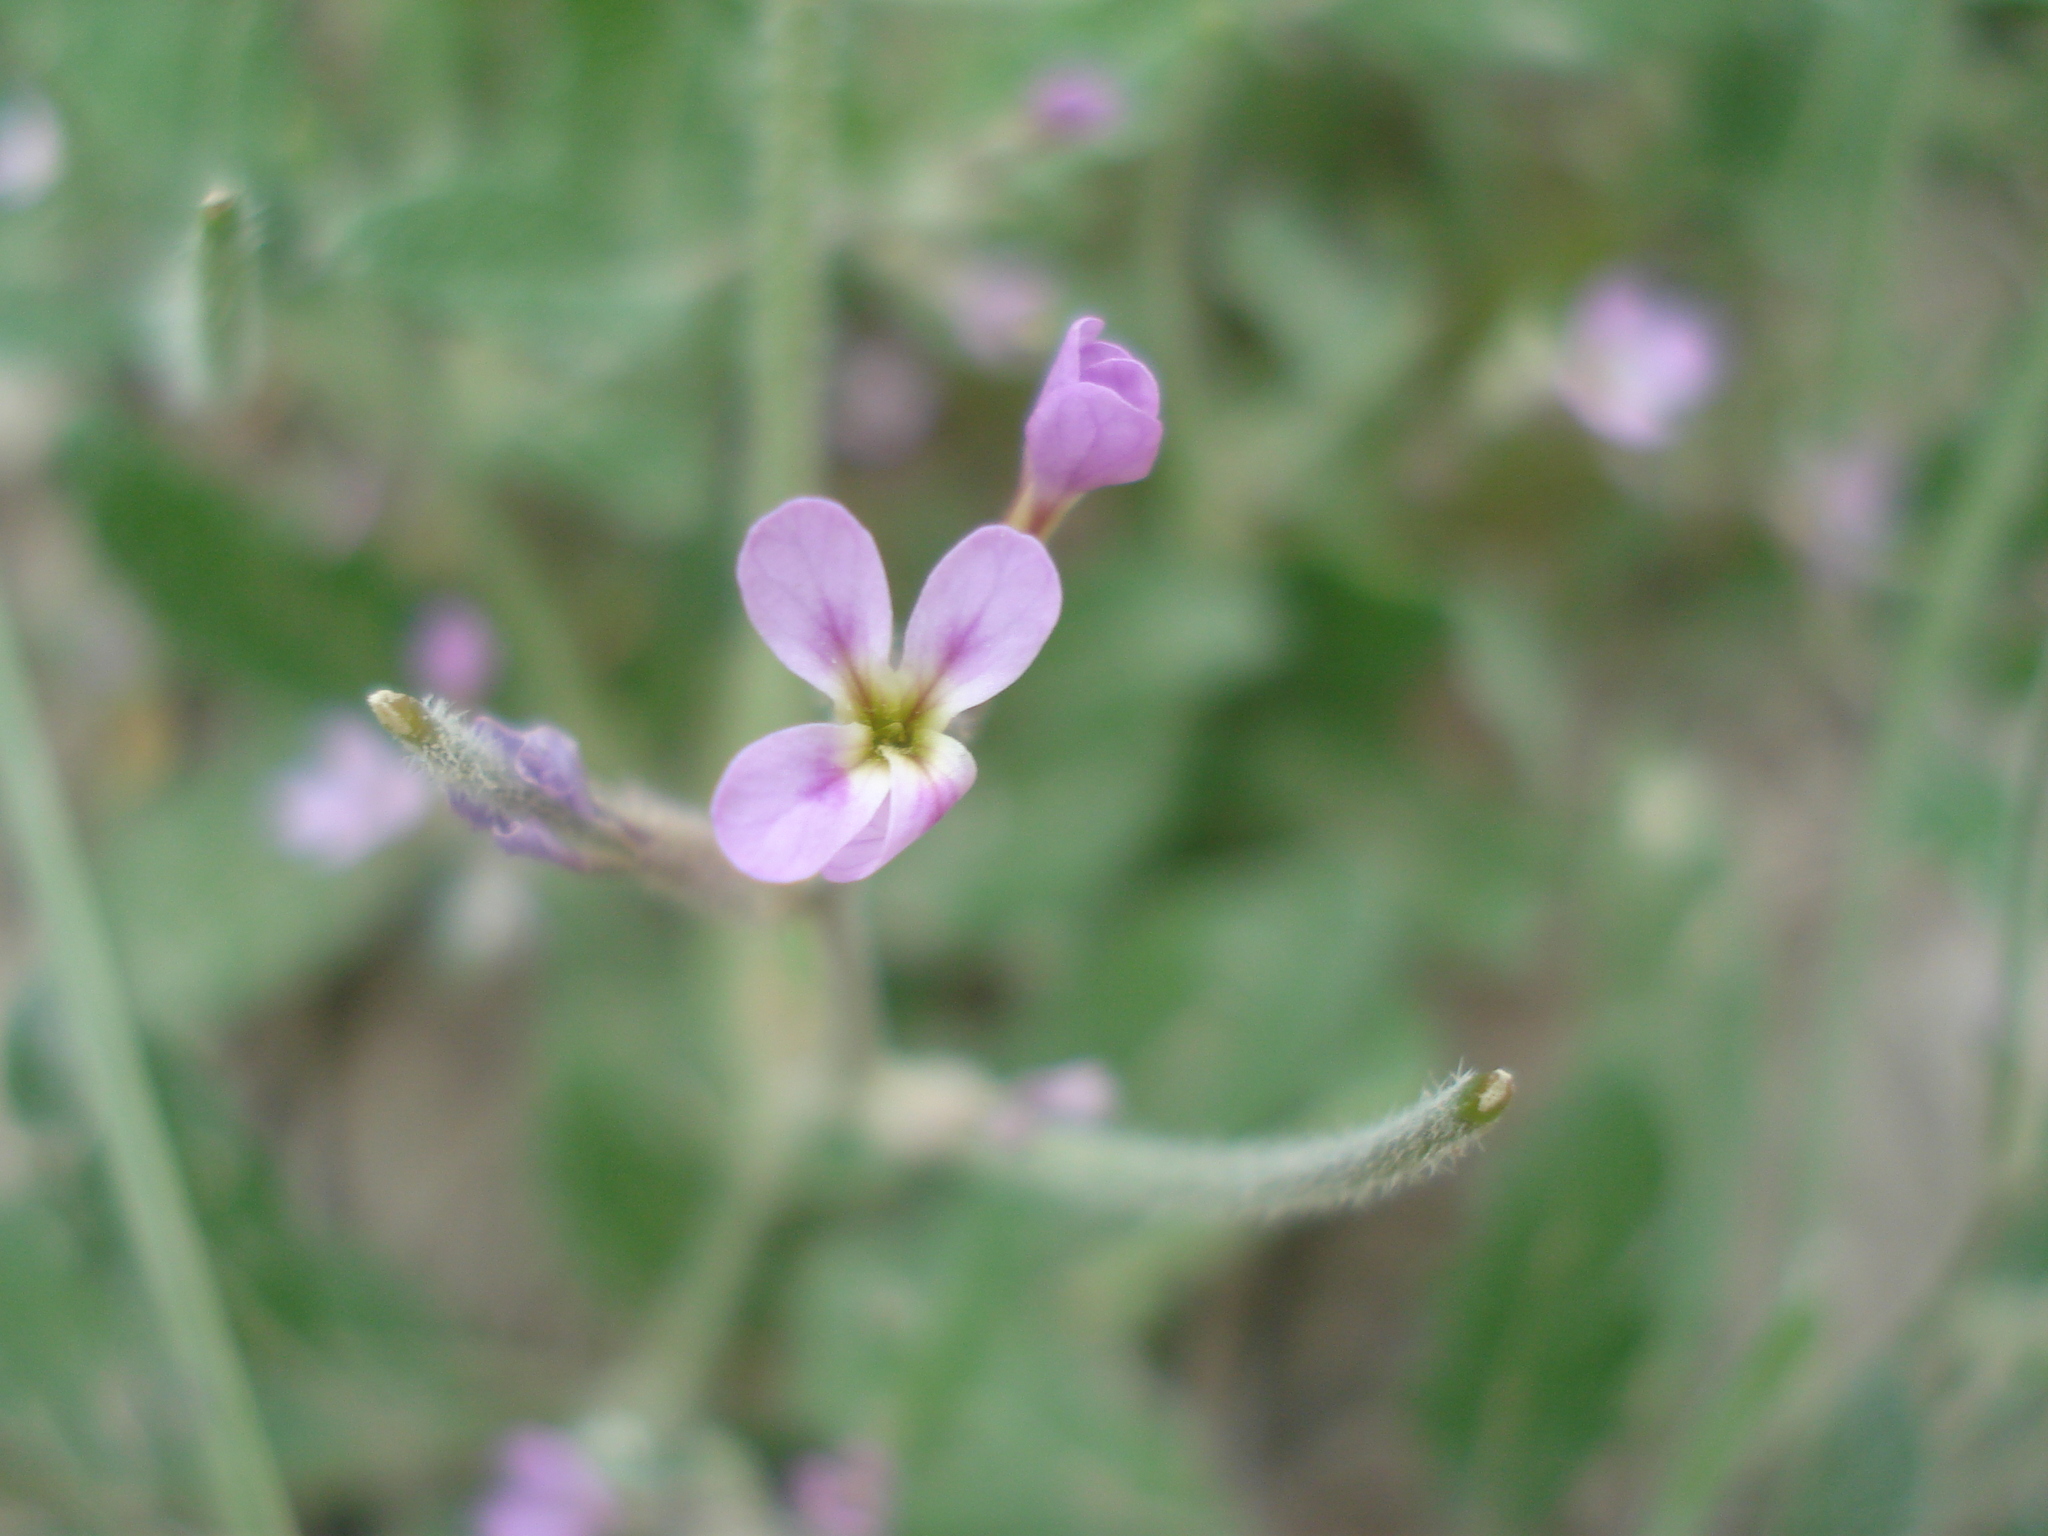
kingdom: Plantae
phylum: Tracheophyta
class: Magnoliopsida
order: Brassicales
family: Brassicaceae
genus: Strigosella
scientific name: Strigosella africana
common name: African mustard
